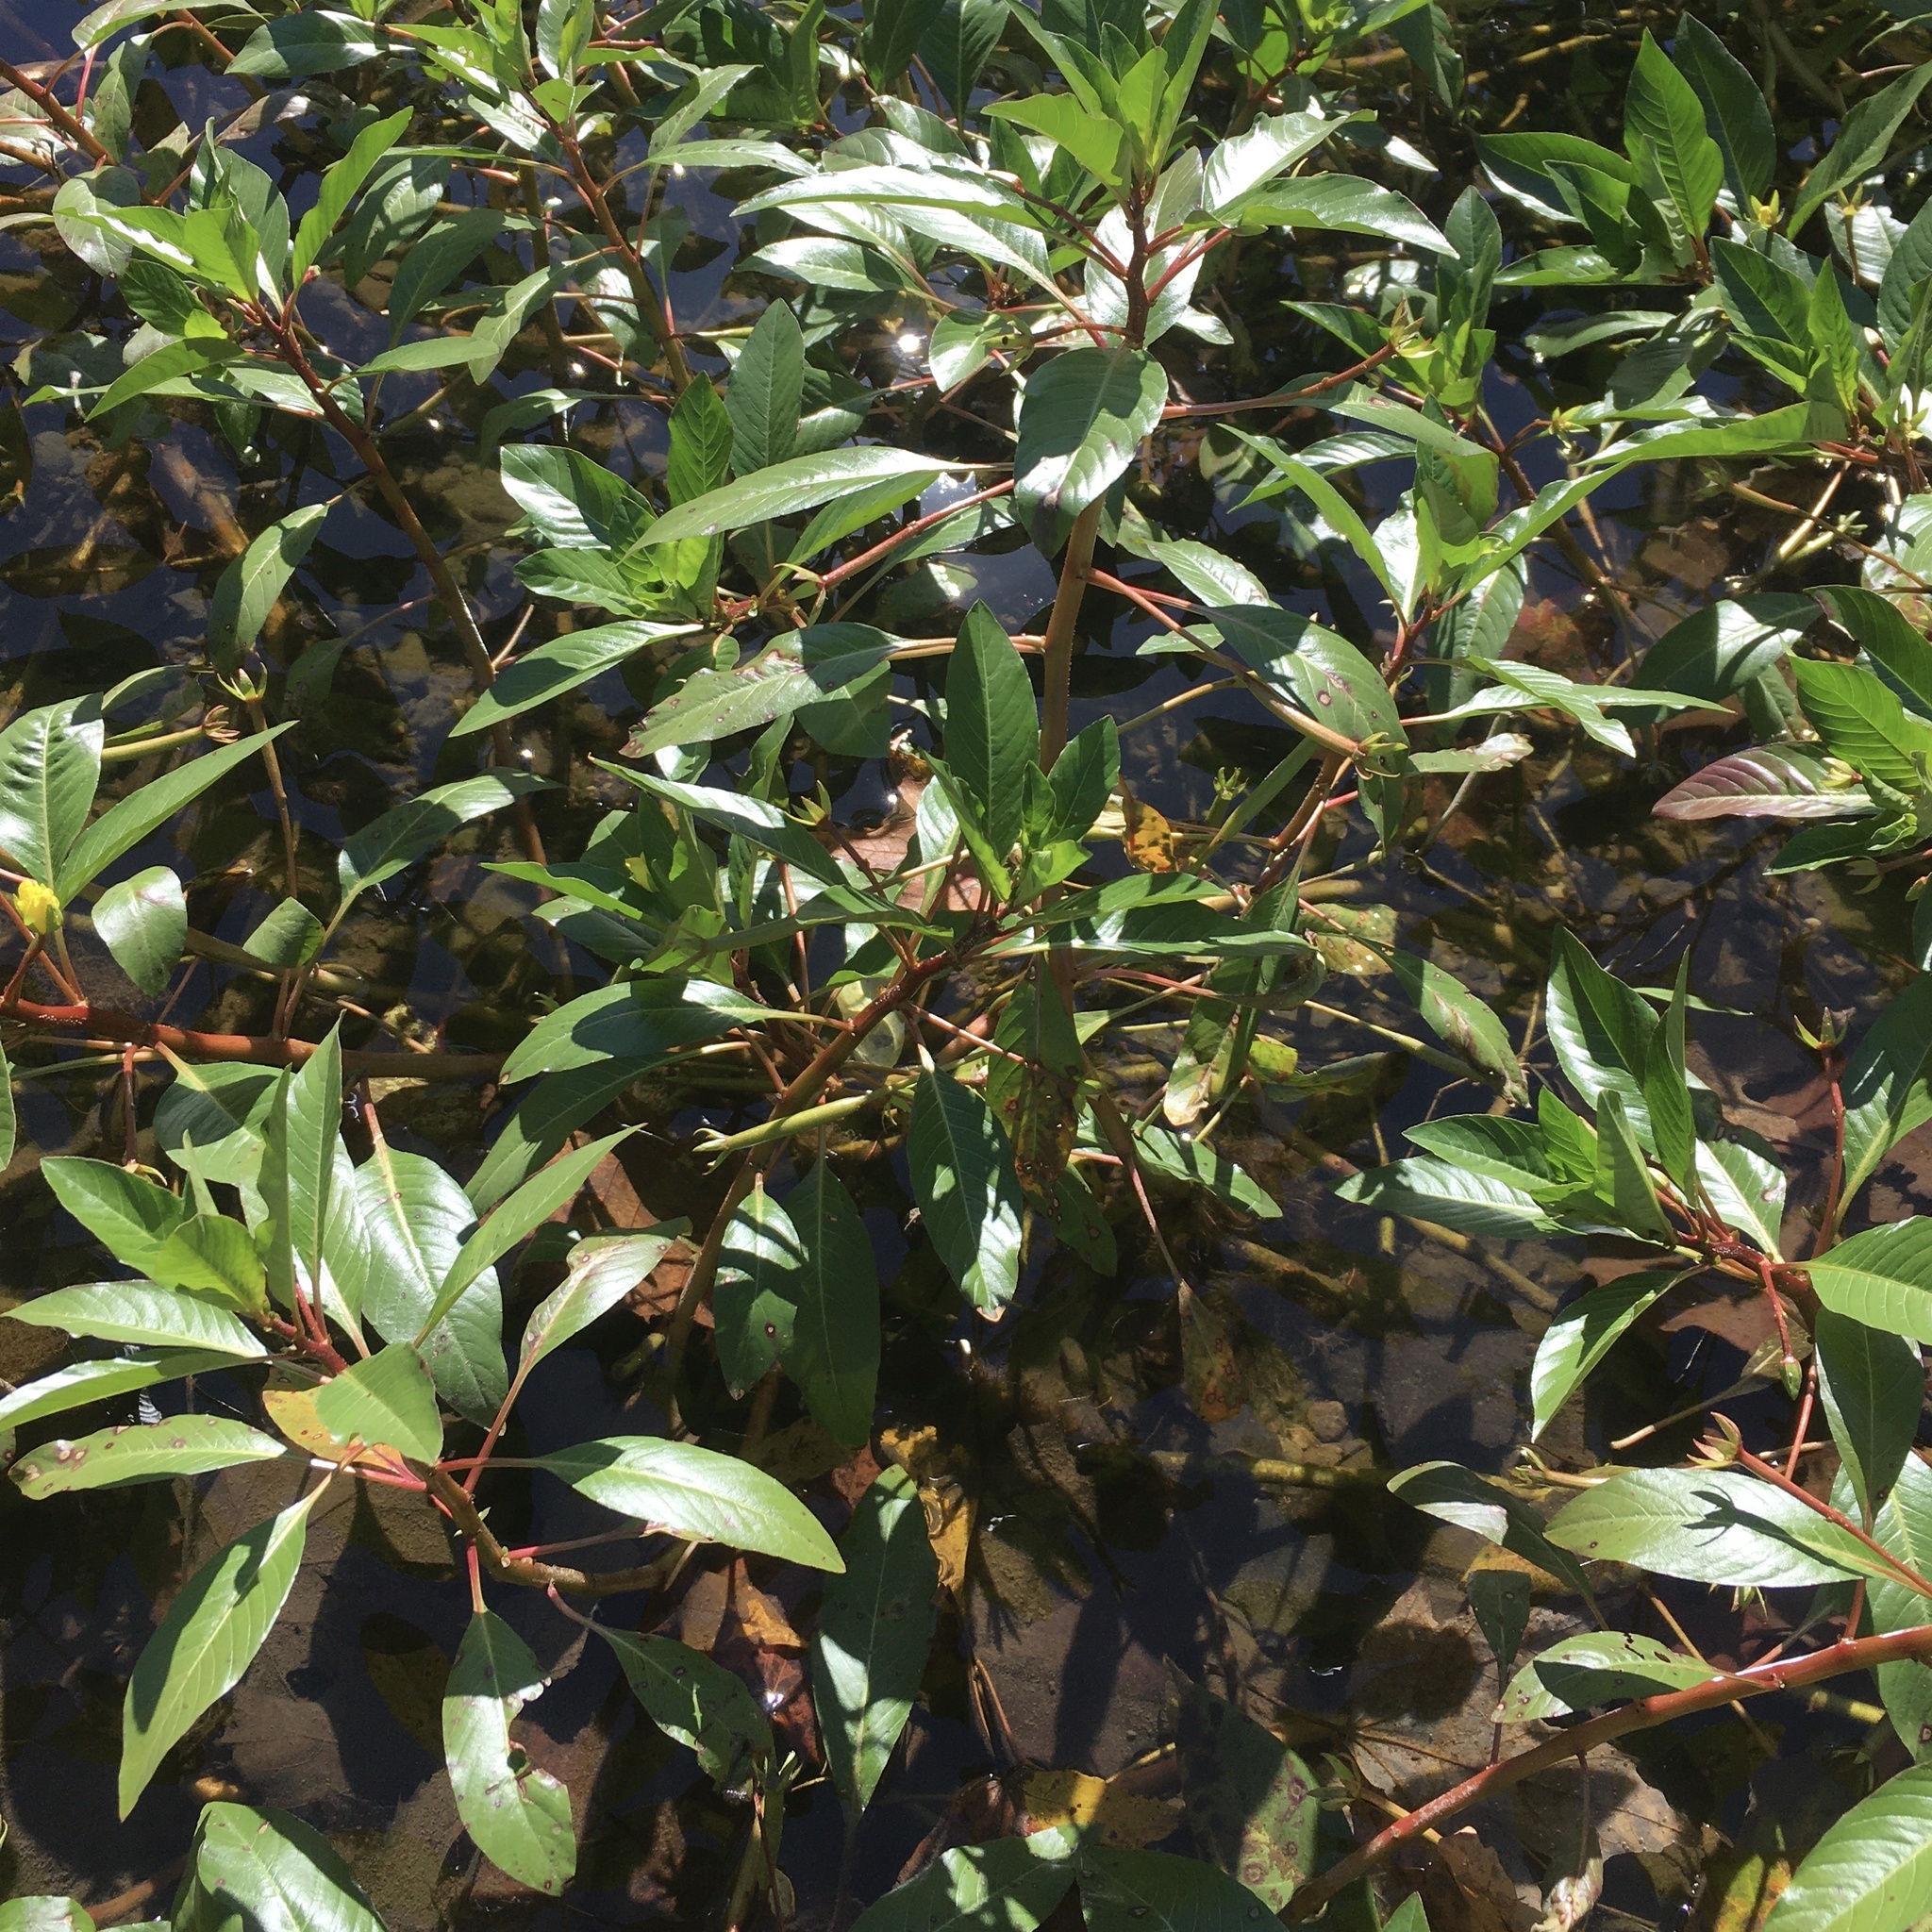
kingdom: Plantae
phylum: Tracheophyta
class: Magnoliopsida
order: Myrtales
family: Onagraceae
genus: Ludwigia
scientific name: Ludwigia peploides
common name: Floating primrose-willow
